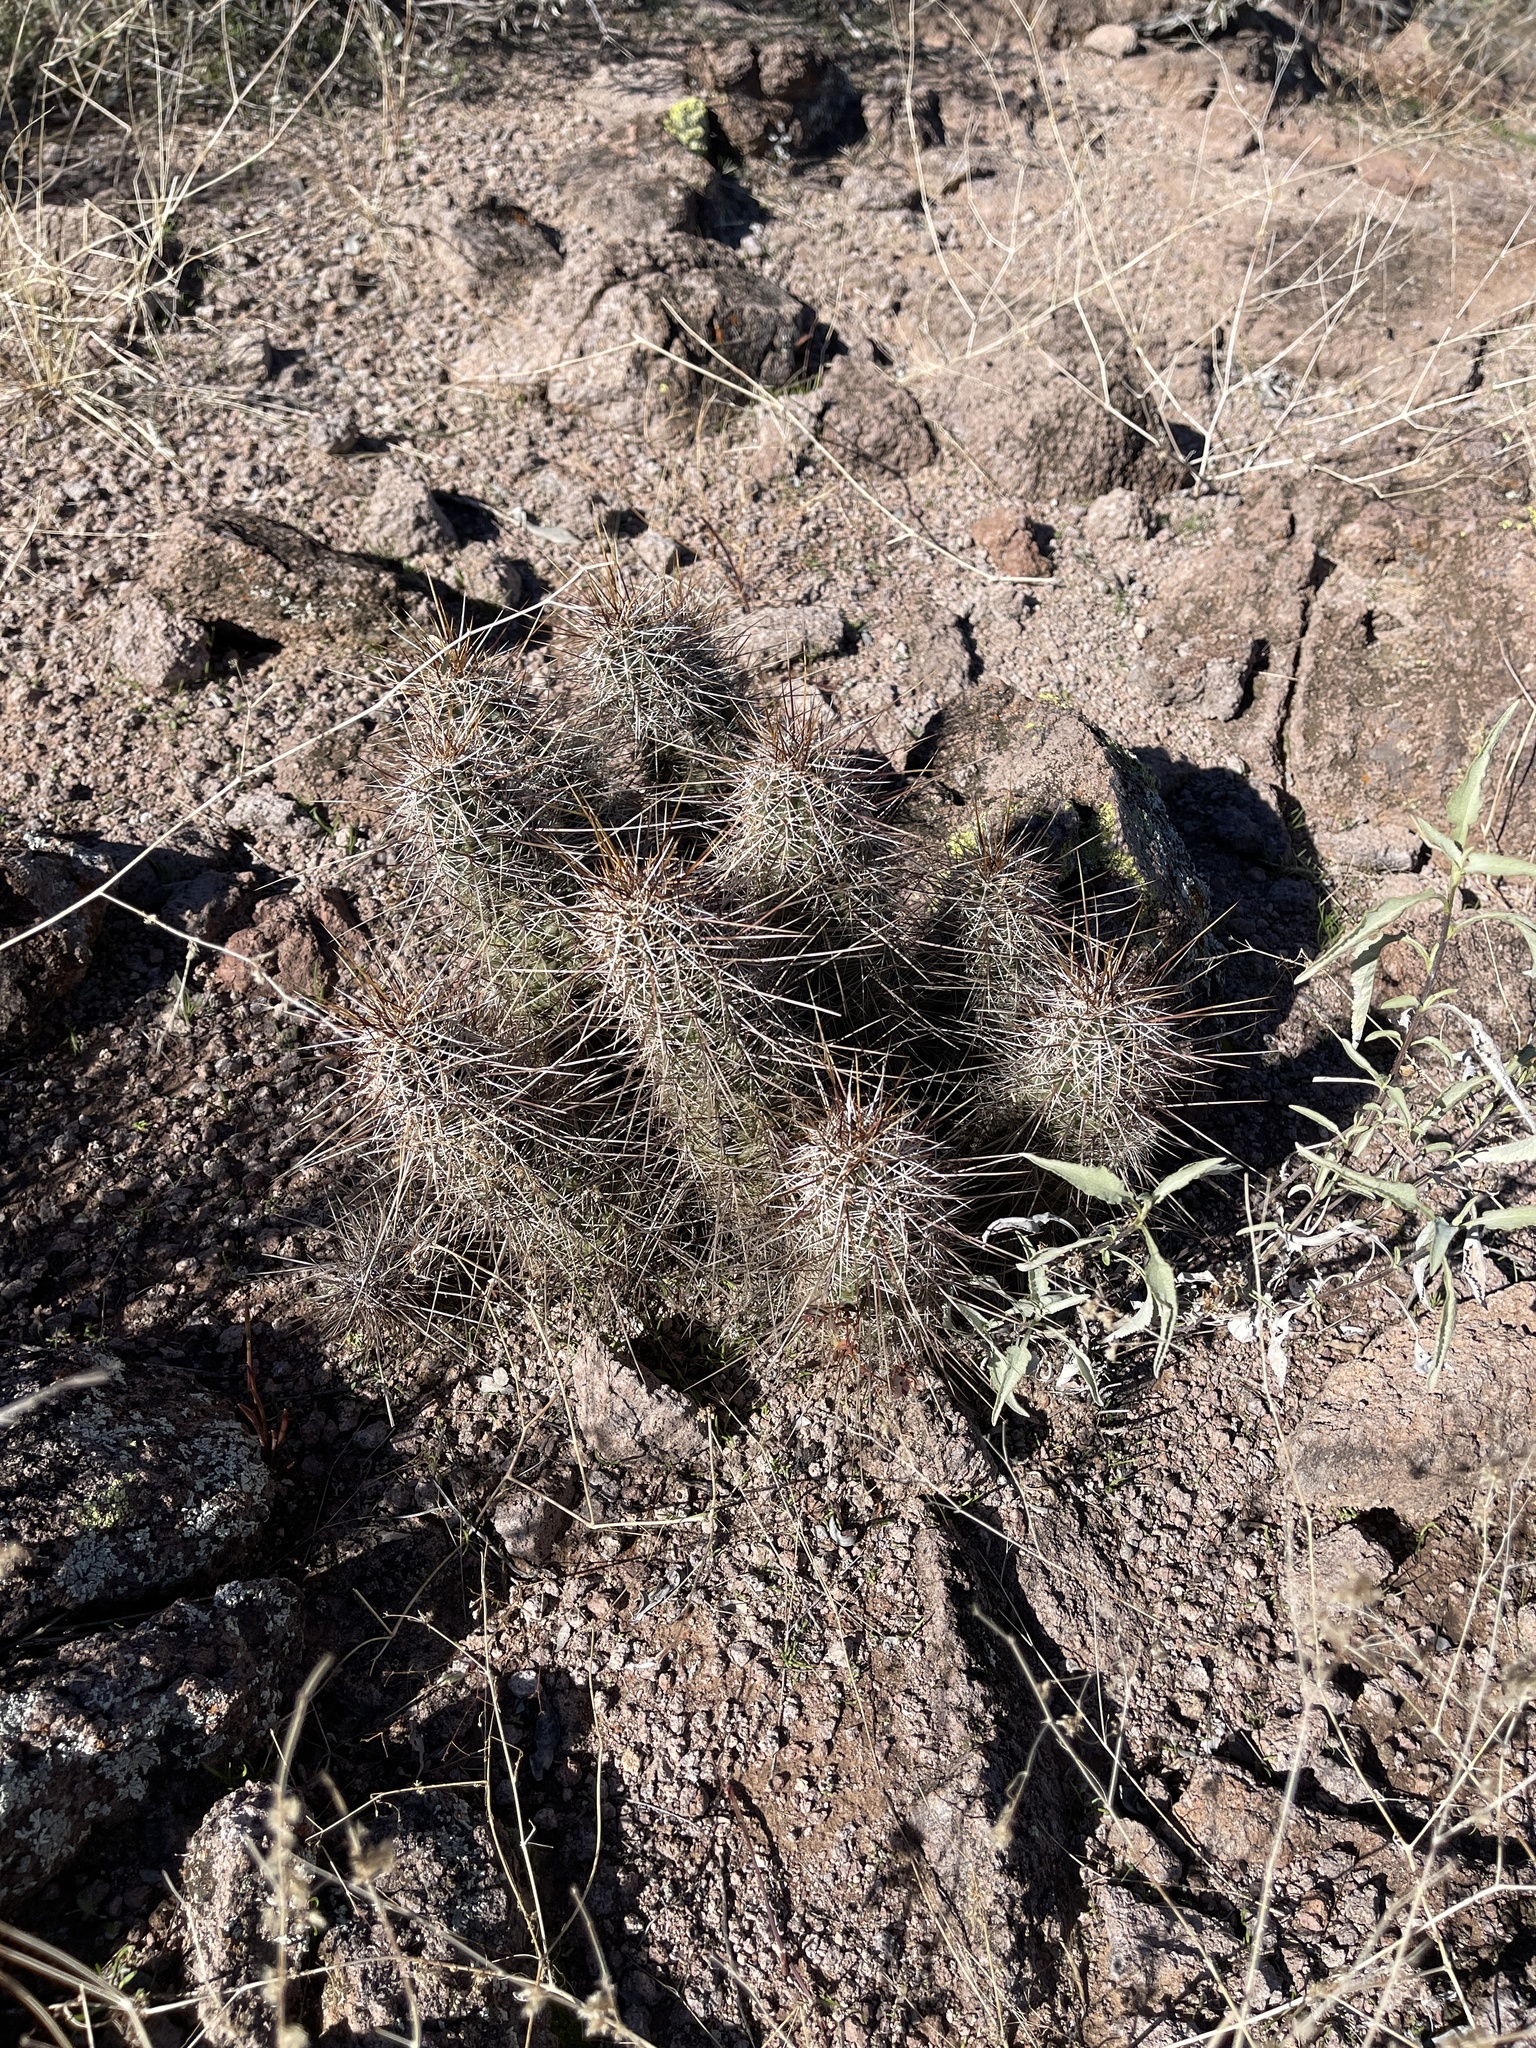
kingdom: Plantae
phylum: Tracheophyta
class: Magnoliopsida
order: Caryophyllales
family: Cactaceae
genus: Echinocereus
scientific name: Echinocereus fasciculatus
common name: Bundle hedgehog
